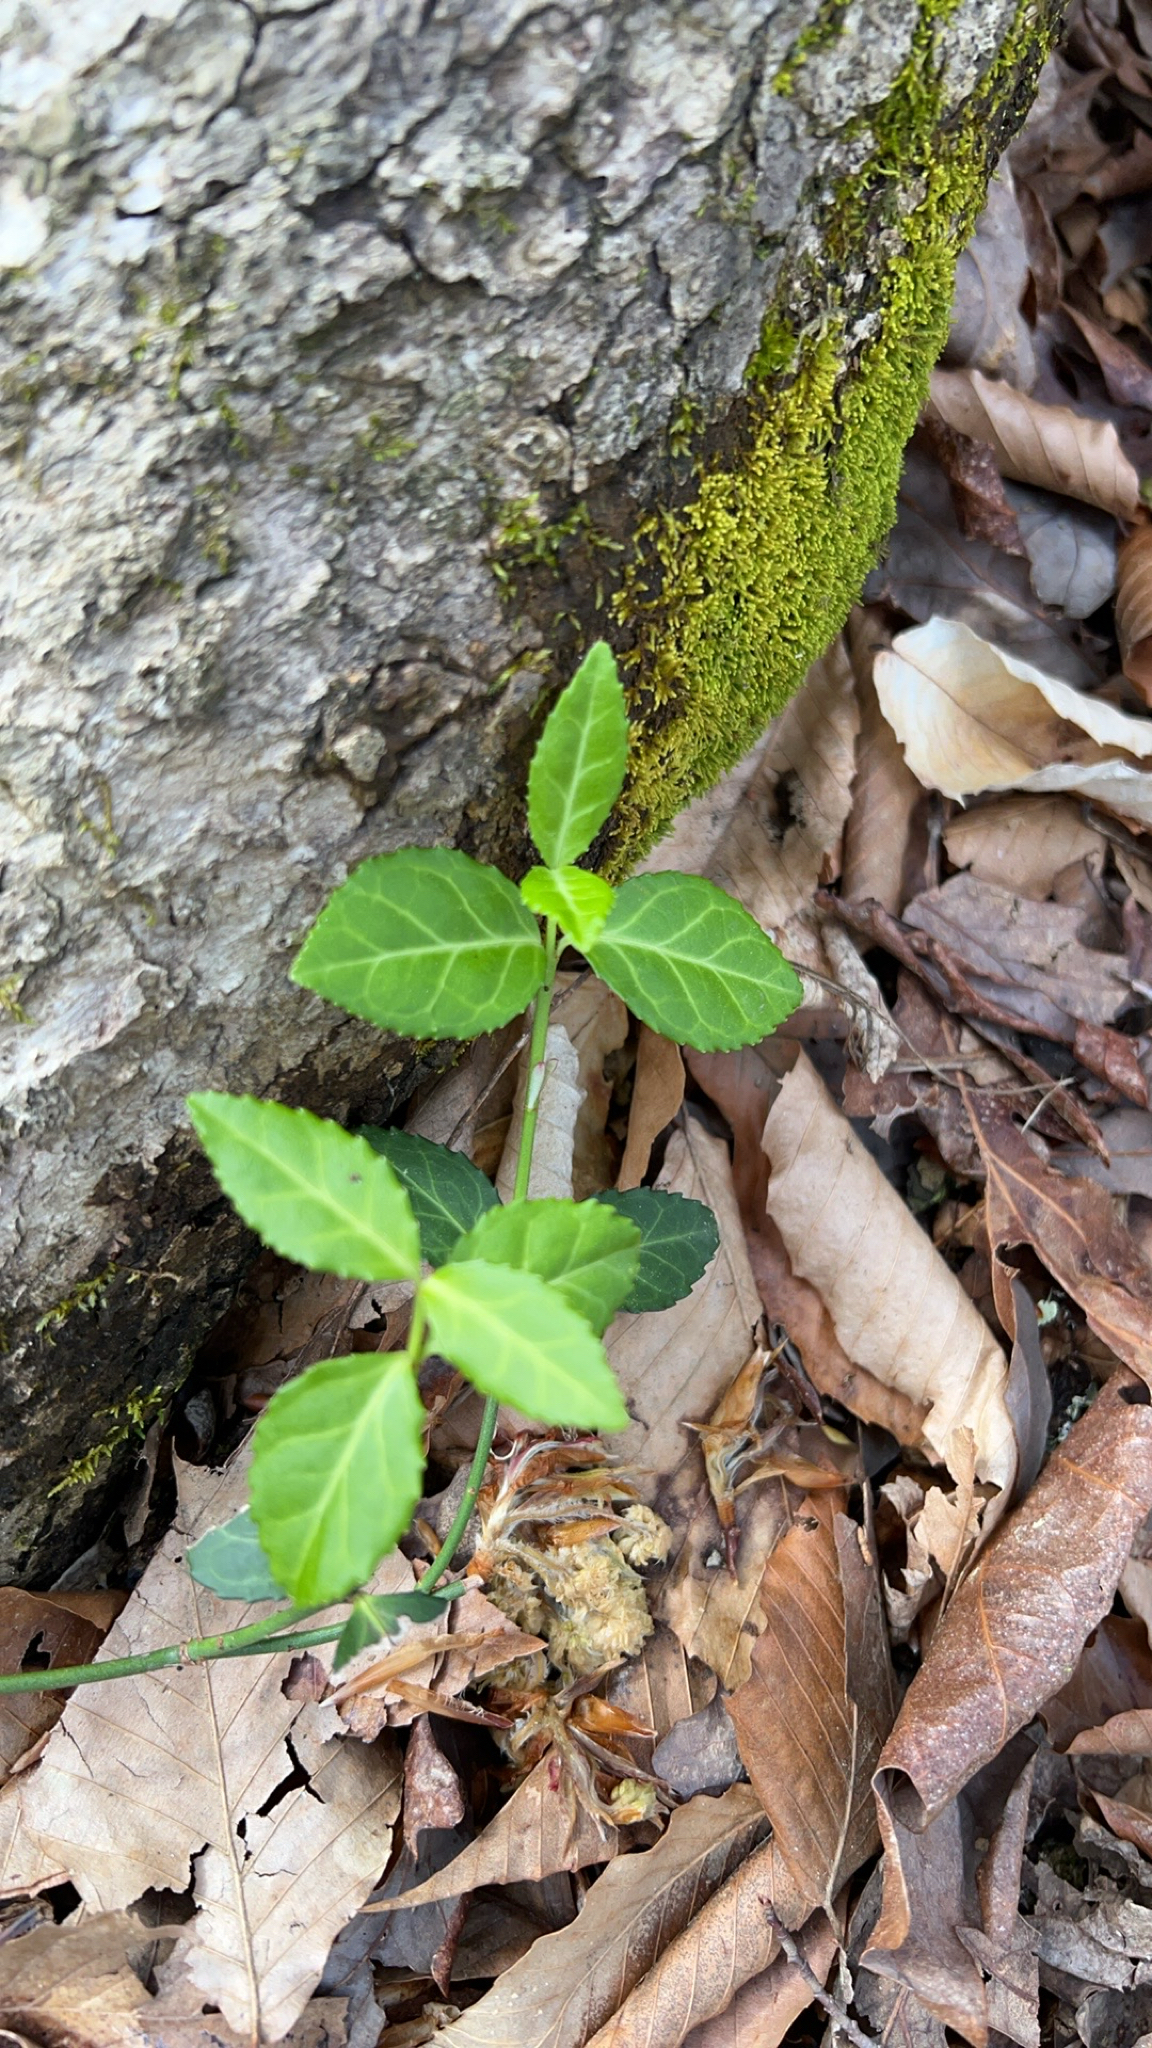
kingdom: Plantae
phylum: Tracheophyta
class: Magnoliopsida
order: Celastrales
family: Celastraceae
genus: Euonymus
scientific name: Euonymus fortunei
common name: Climbing euonymus
